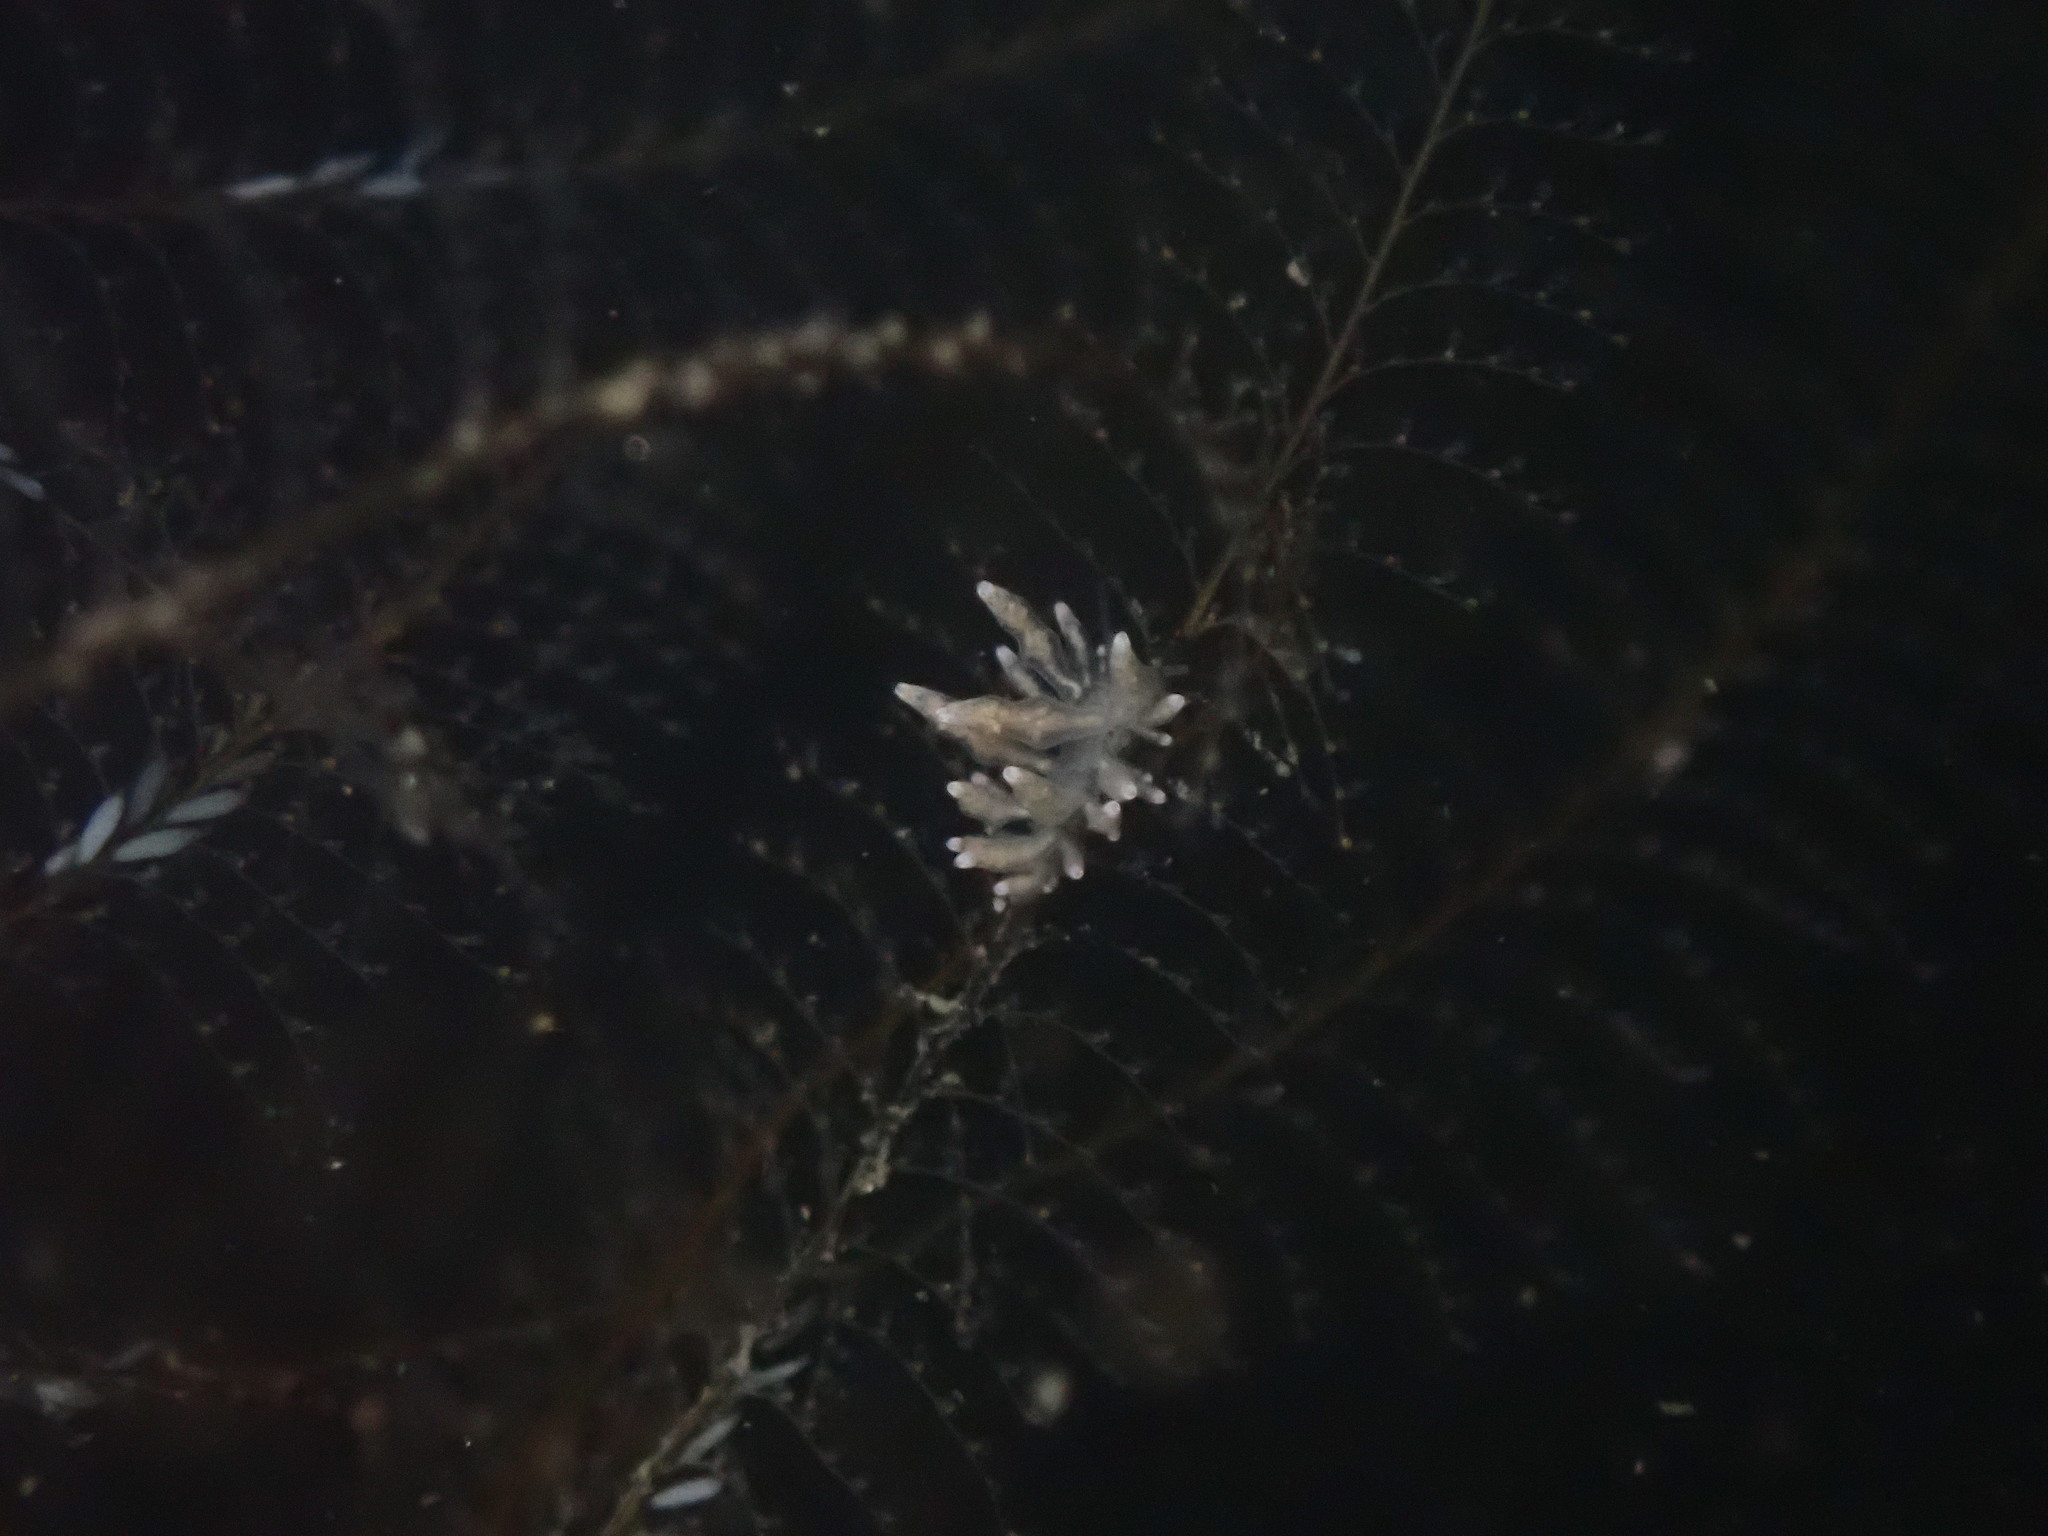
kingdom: Animalia
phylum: Mollusca
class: Gastropoda
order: Nudibranchia
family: Eubranchidae
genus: Eubranchus
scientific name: Eubranchus rustyus
